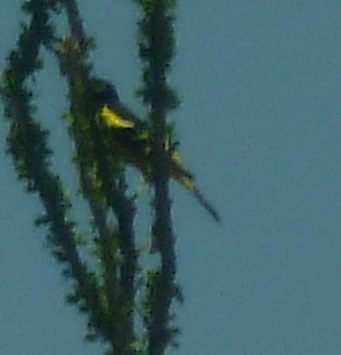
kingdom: Animalia
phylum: Chordata
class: Aves
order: Passeriformes
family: Icteridae
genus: Icterus
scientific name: Icterus parisorum
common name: Scott's oriole
